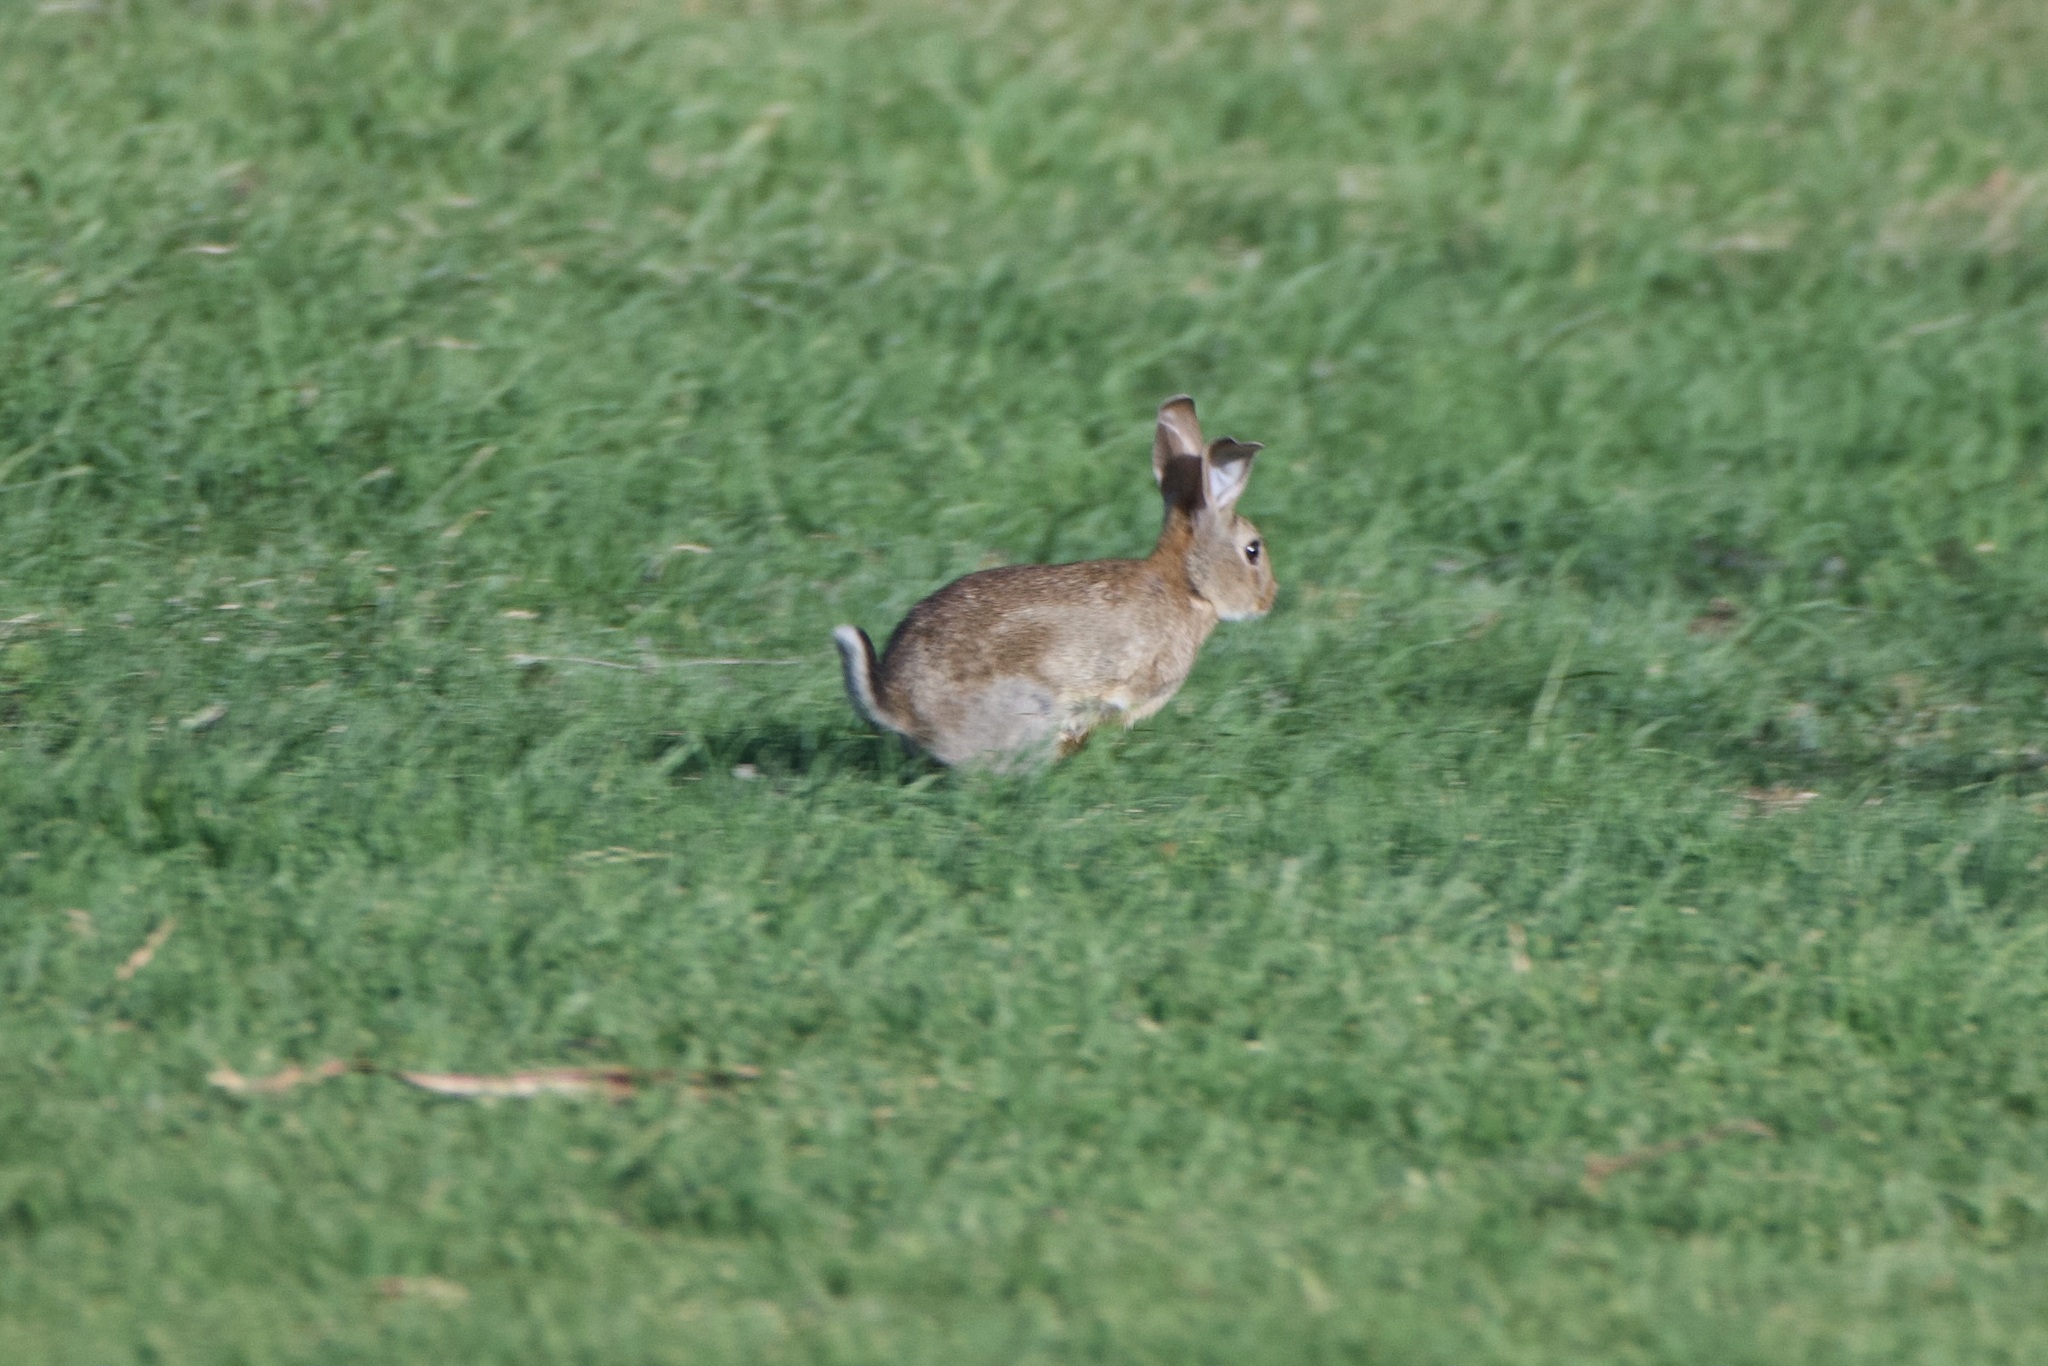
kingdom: Animalia
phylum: Chordata
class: Mammalia
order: Lagomorpha
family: Leporidae
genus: Oryctolagus
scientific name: Oryctolagus cuniculus
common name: European rabbit
